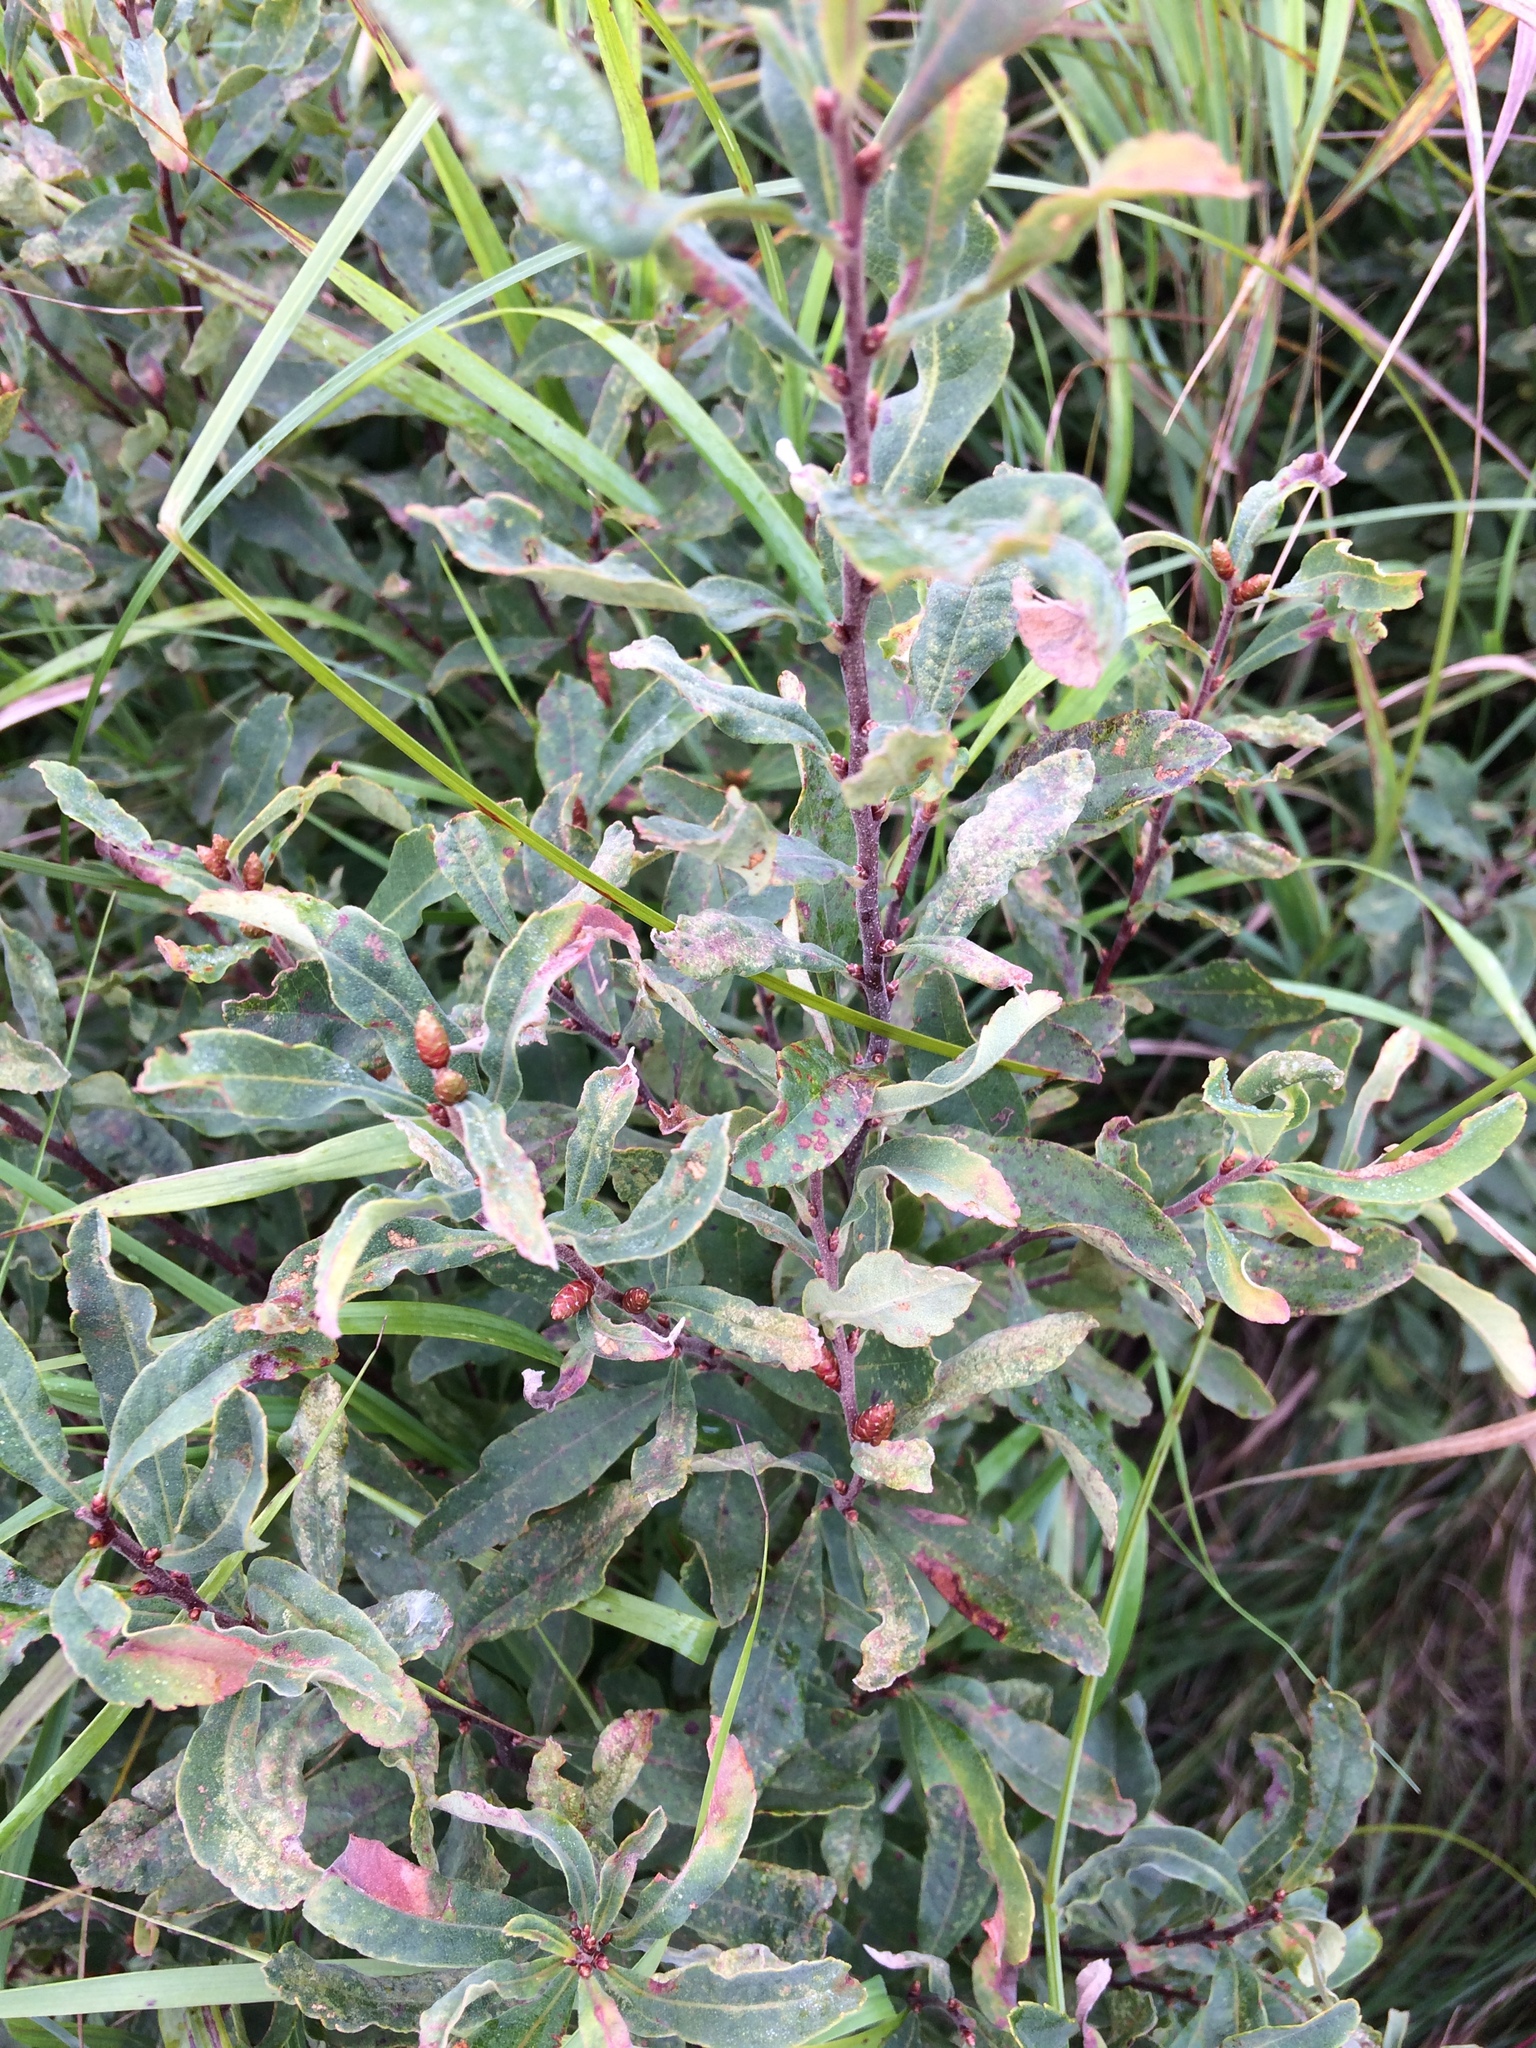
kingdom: Plantae
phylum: Tracheophyta
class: Magnoliopsida
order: Fagales
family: Myricaceae
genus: Myrica
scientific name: Myrica gale
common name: Sweet gale
